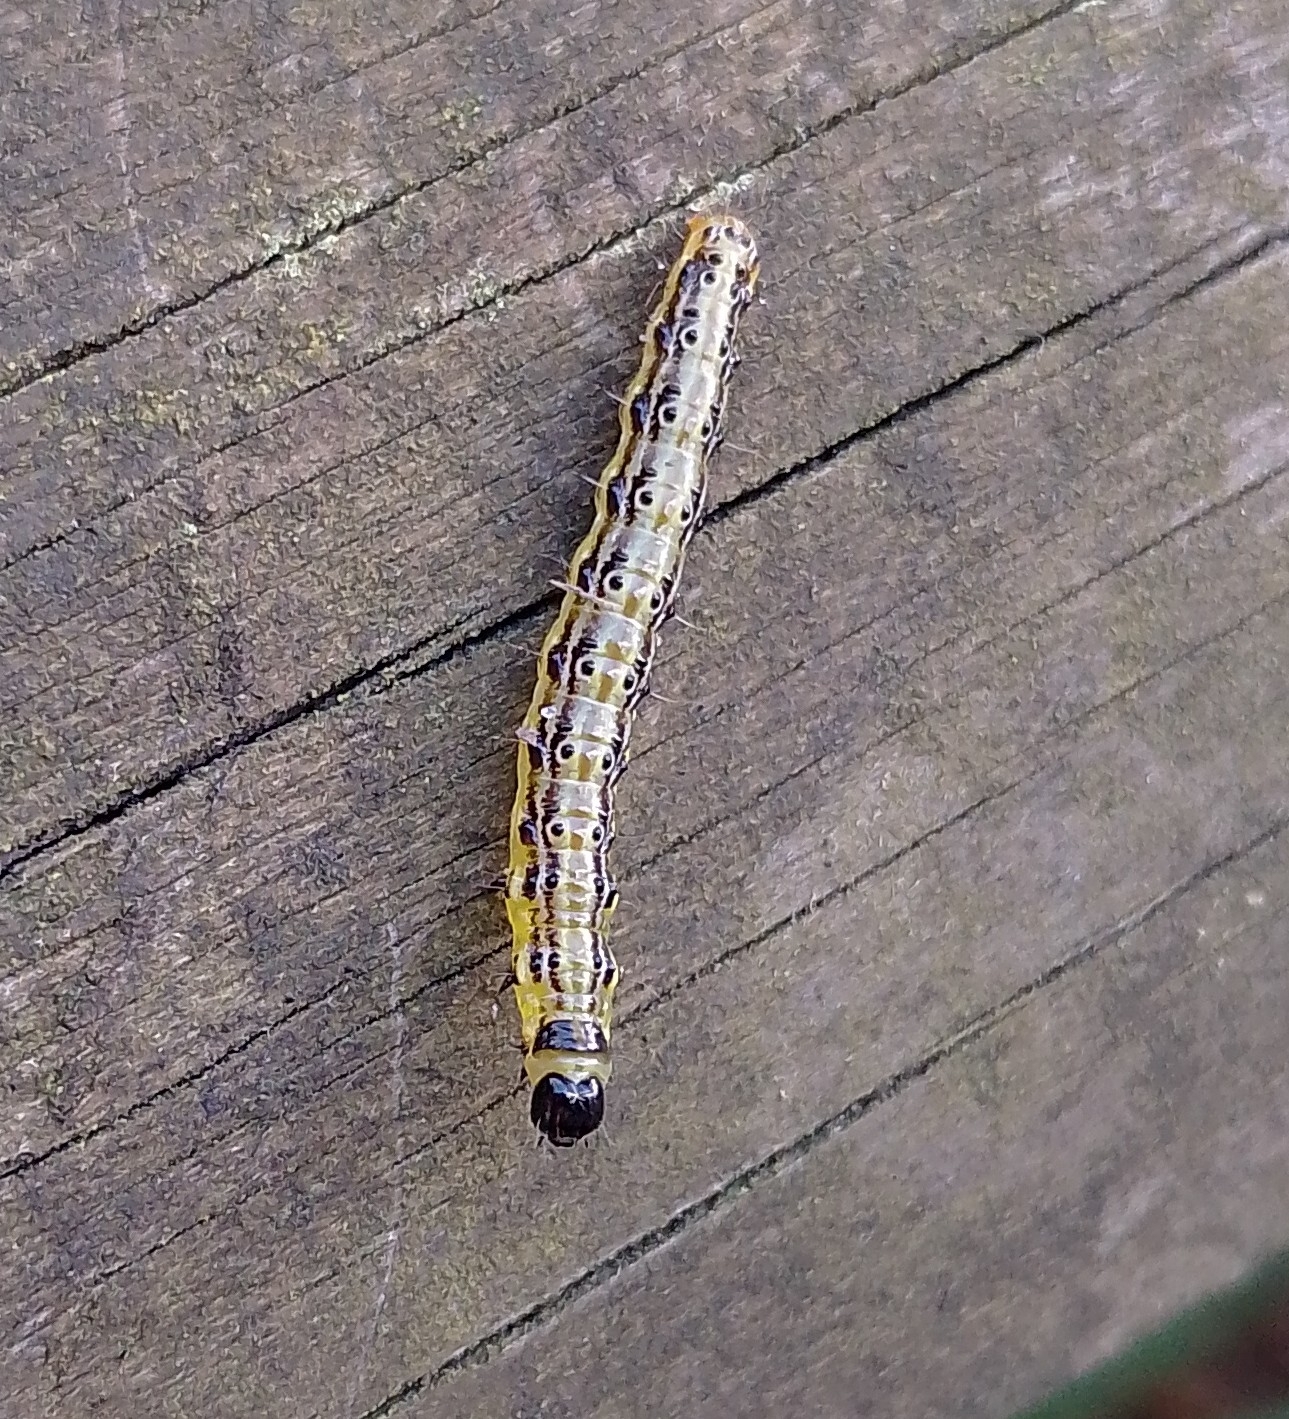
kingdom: Animalia
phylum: Arthropoda
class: Insecta
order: Lepidoptera
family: Crambidae
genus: Cydalima
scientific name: Cydalima perspectalis
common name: Box tree moth
